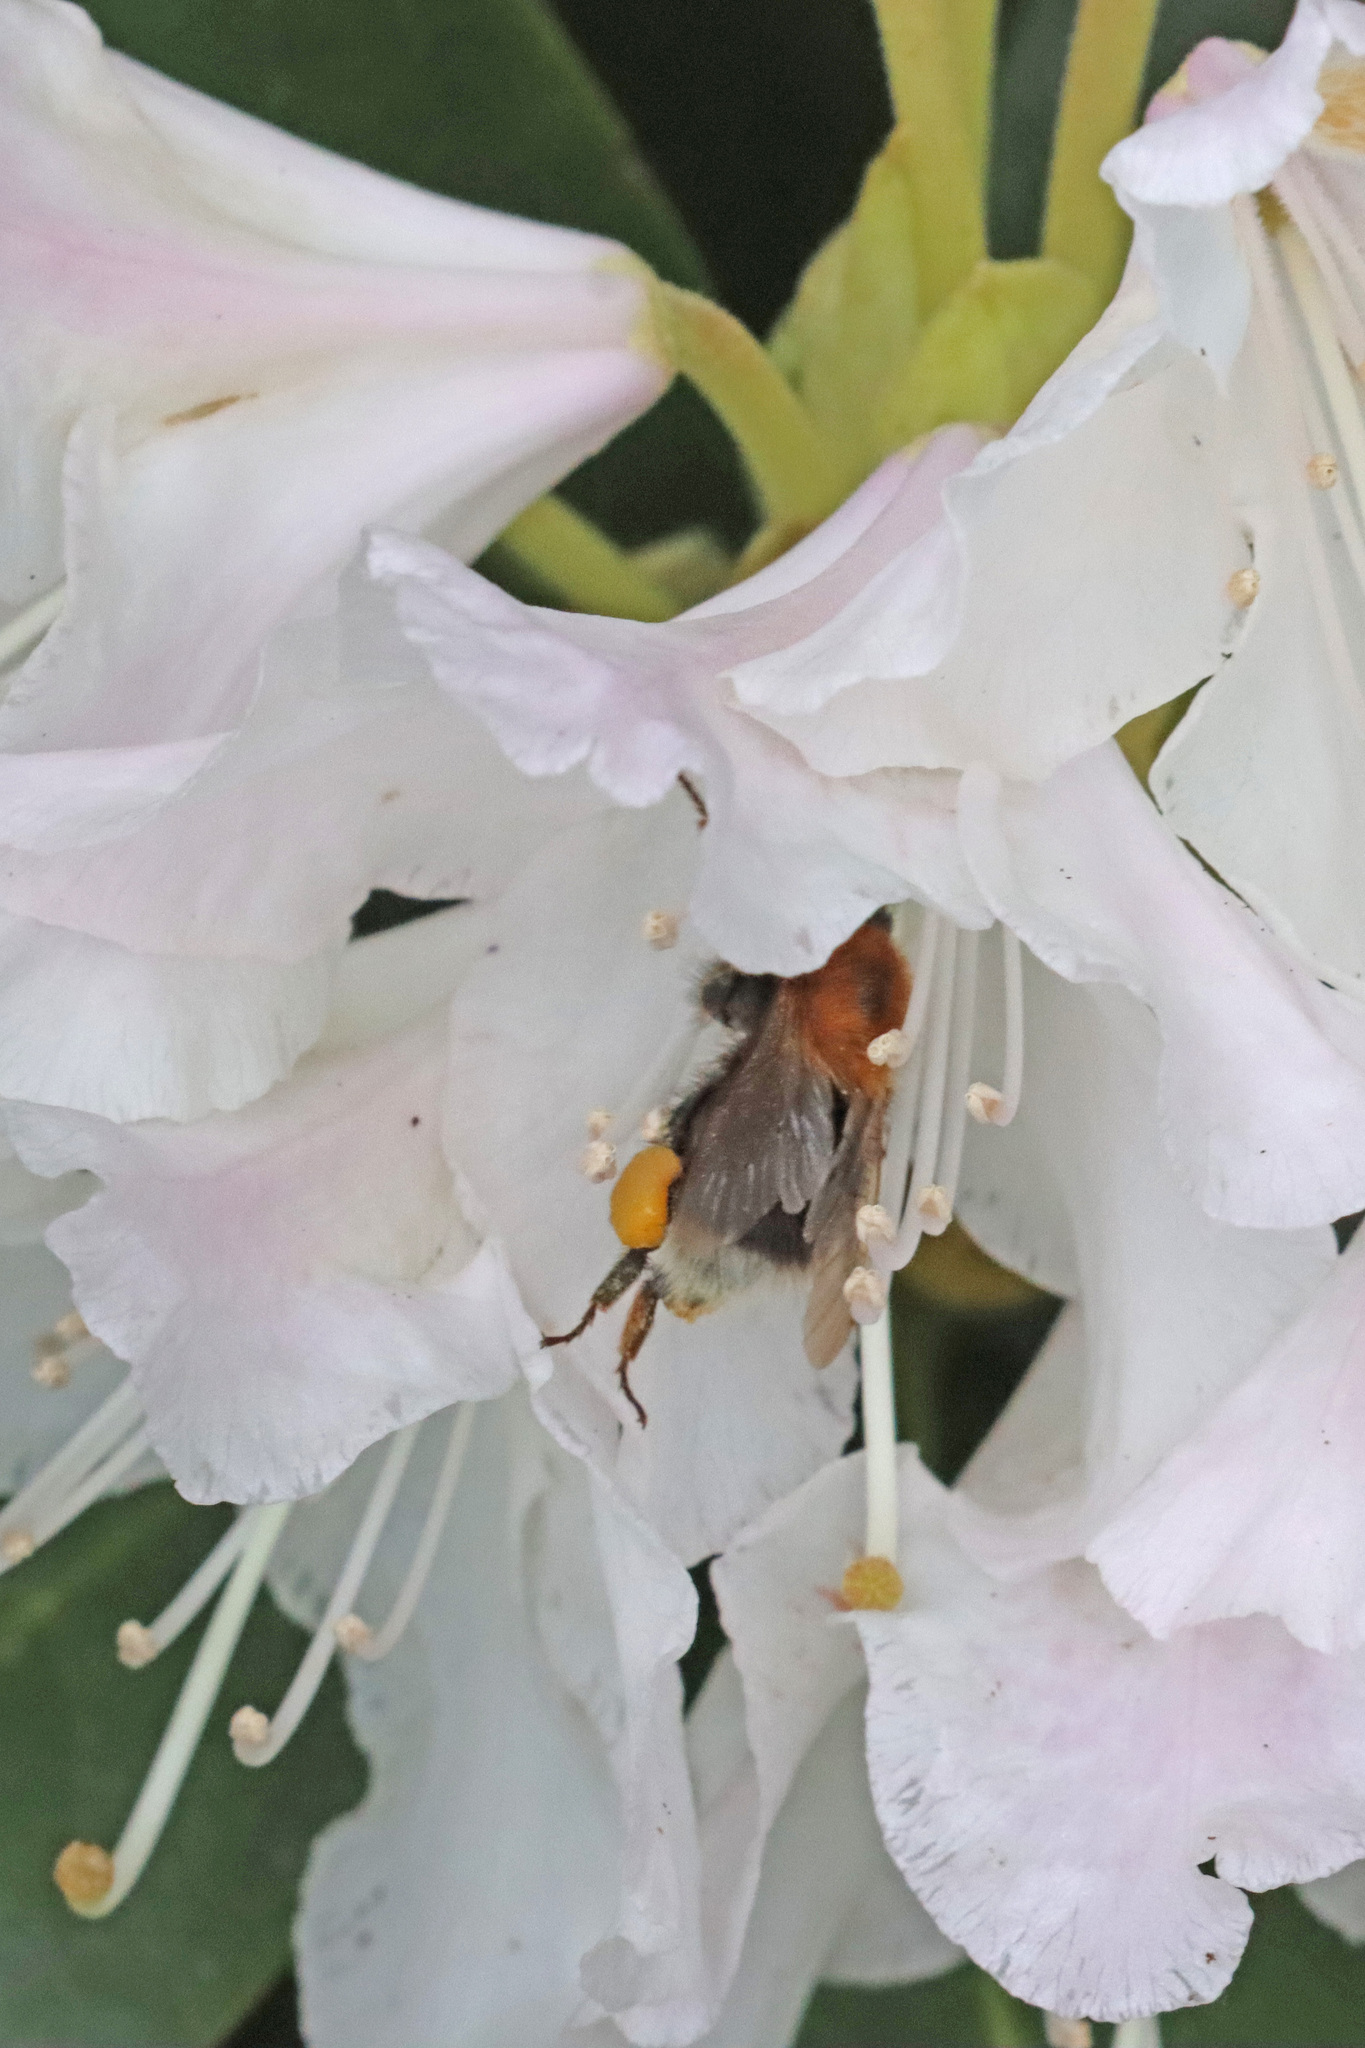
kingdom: Animalia
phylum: Arthropoda
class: Insecta
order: Hymenoptera
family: Apidae
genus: Bombus
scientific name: Bombus hypnorum
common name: New garden bumblebee
